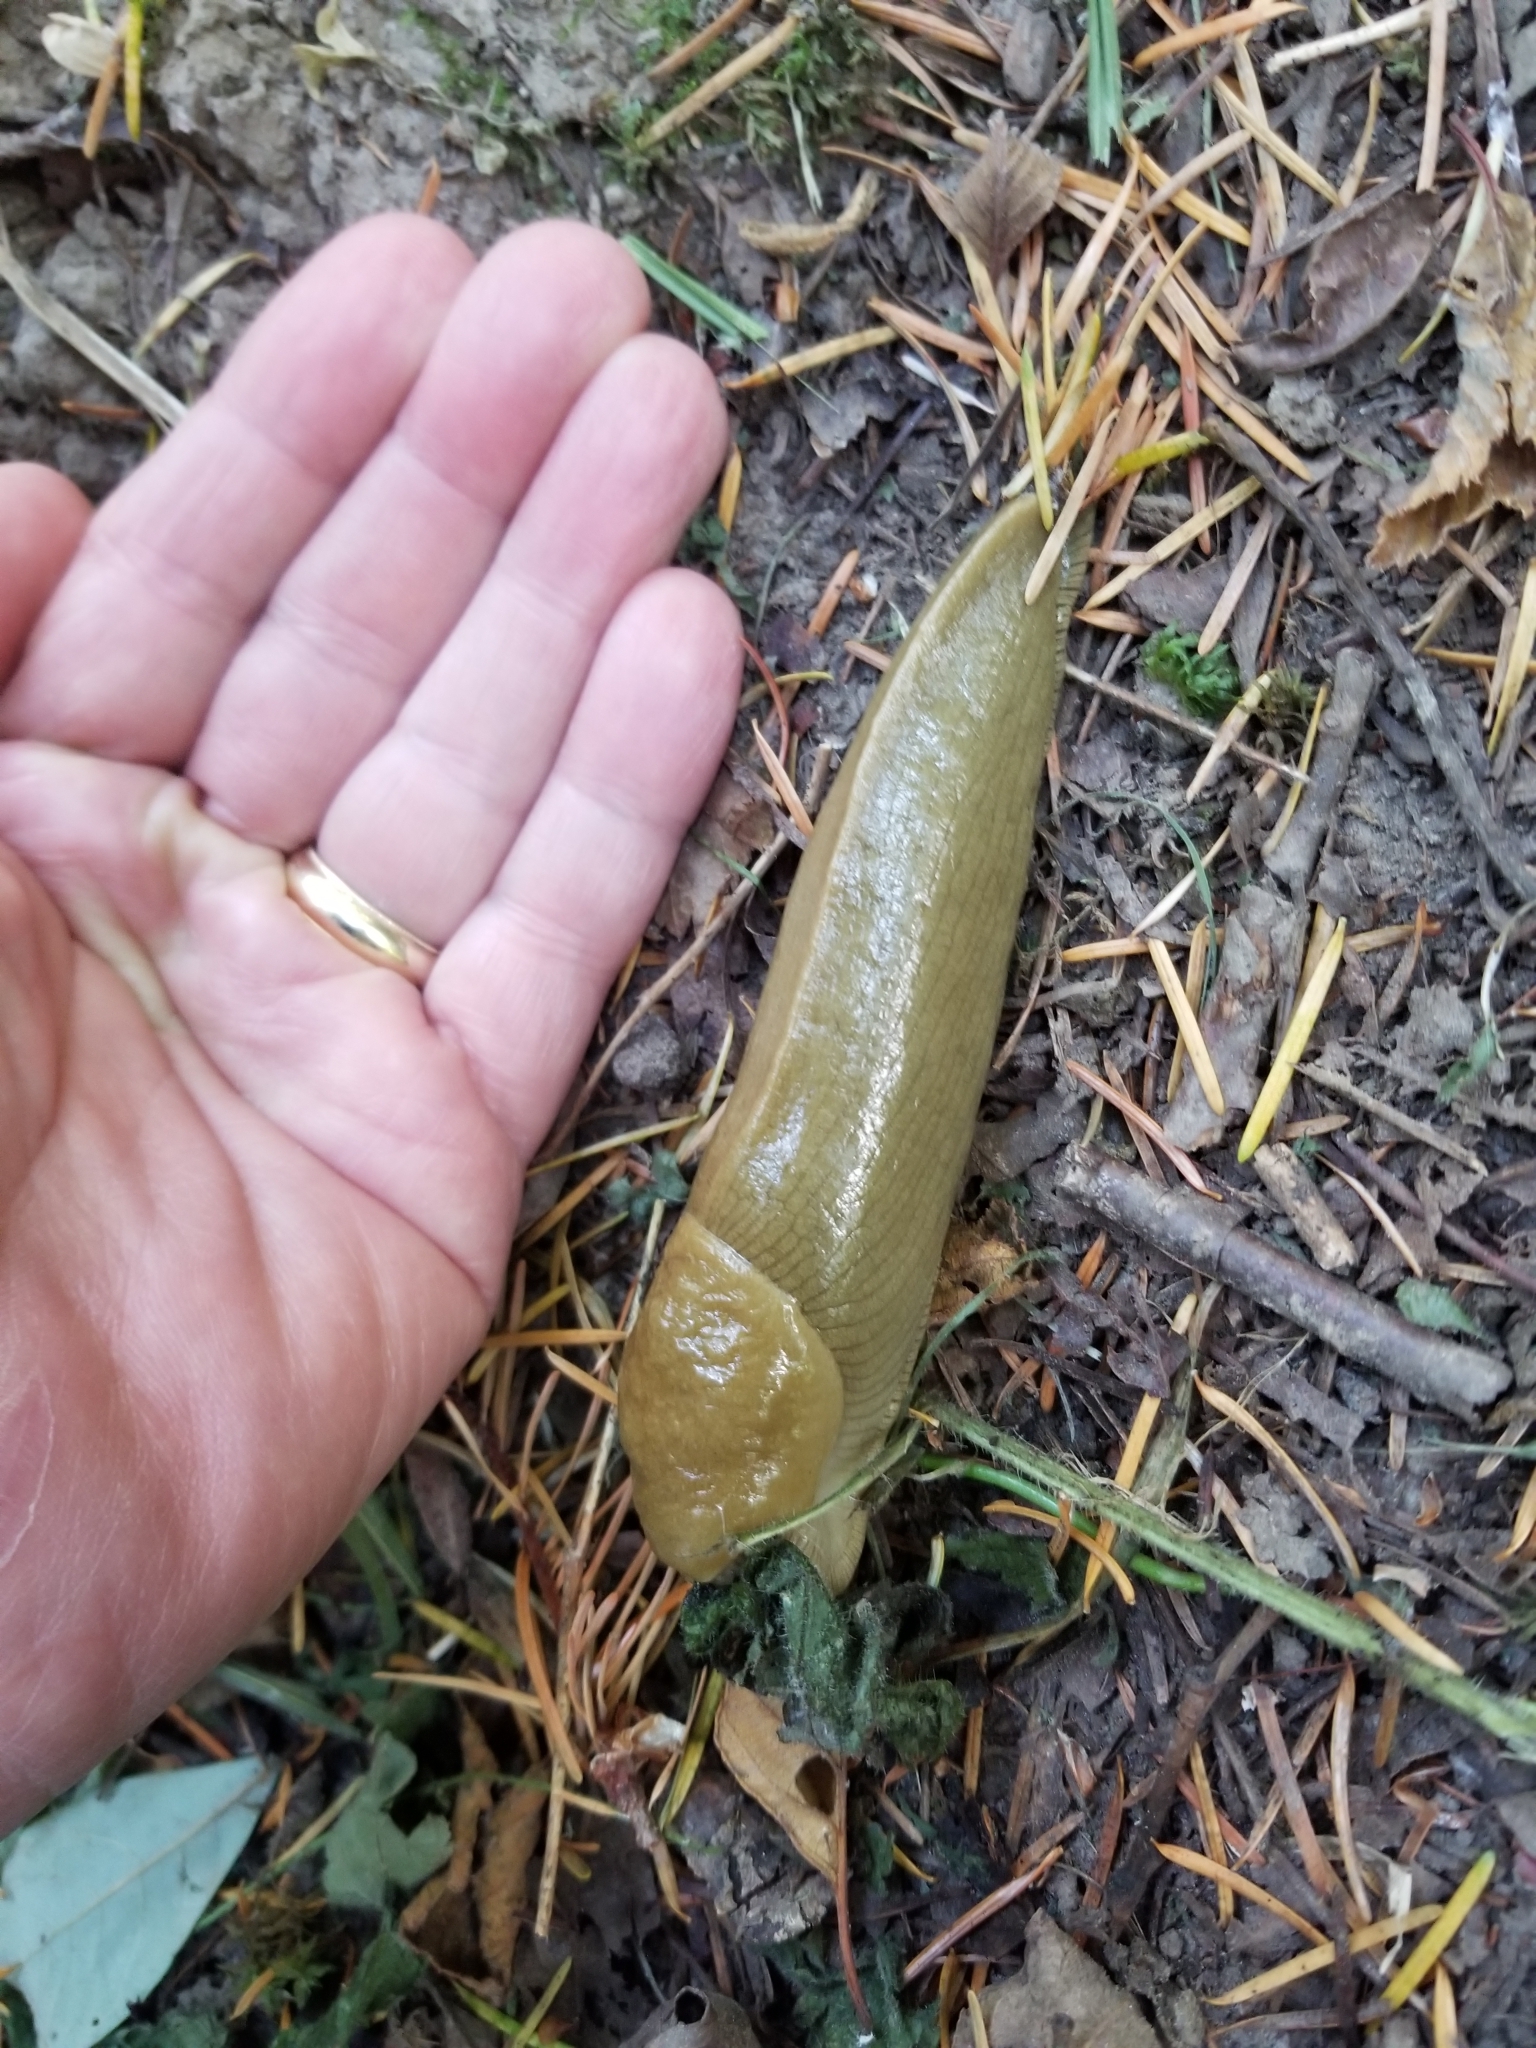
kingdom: Animalia
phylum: Mollusca
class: Gastropoda
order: Stylommatophora
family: Ariolimacidae
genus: Ariolimax
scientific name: Ariolimax columbianus
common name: Pacific banana slug
